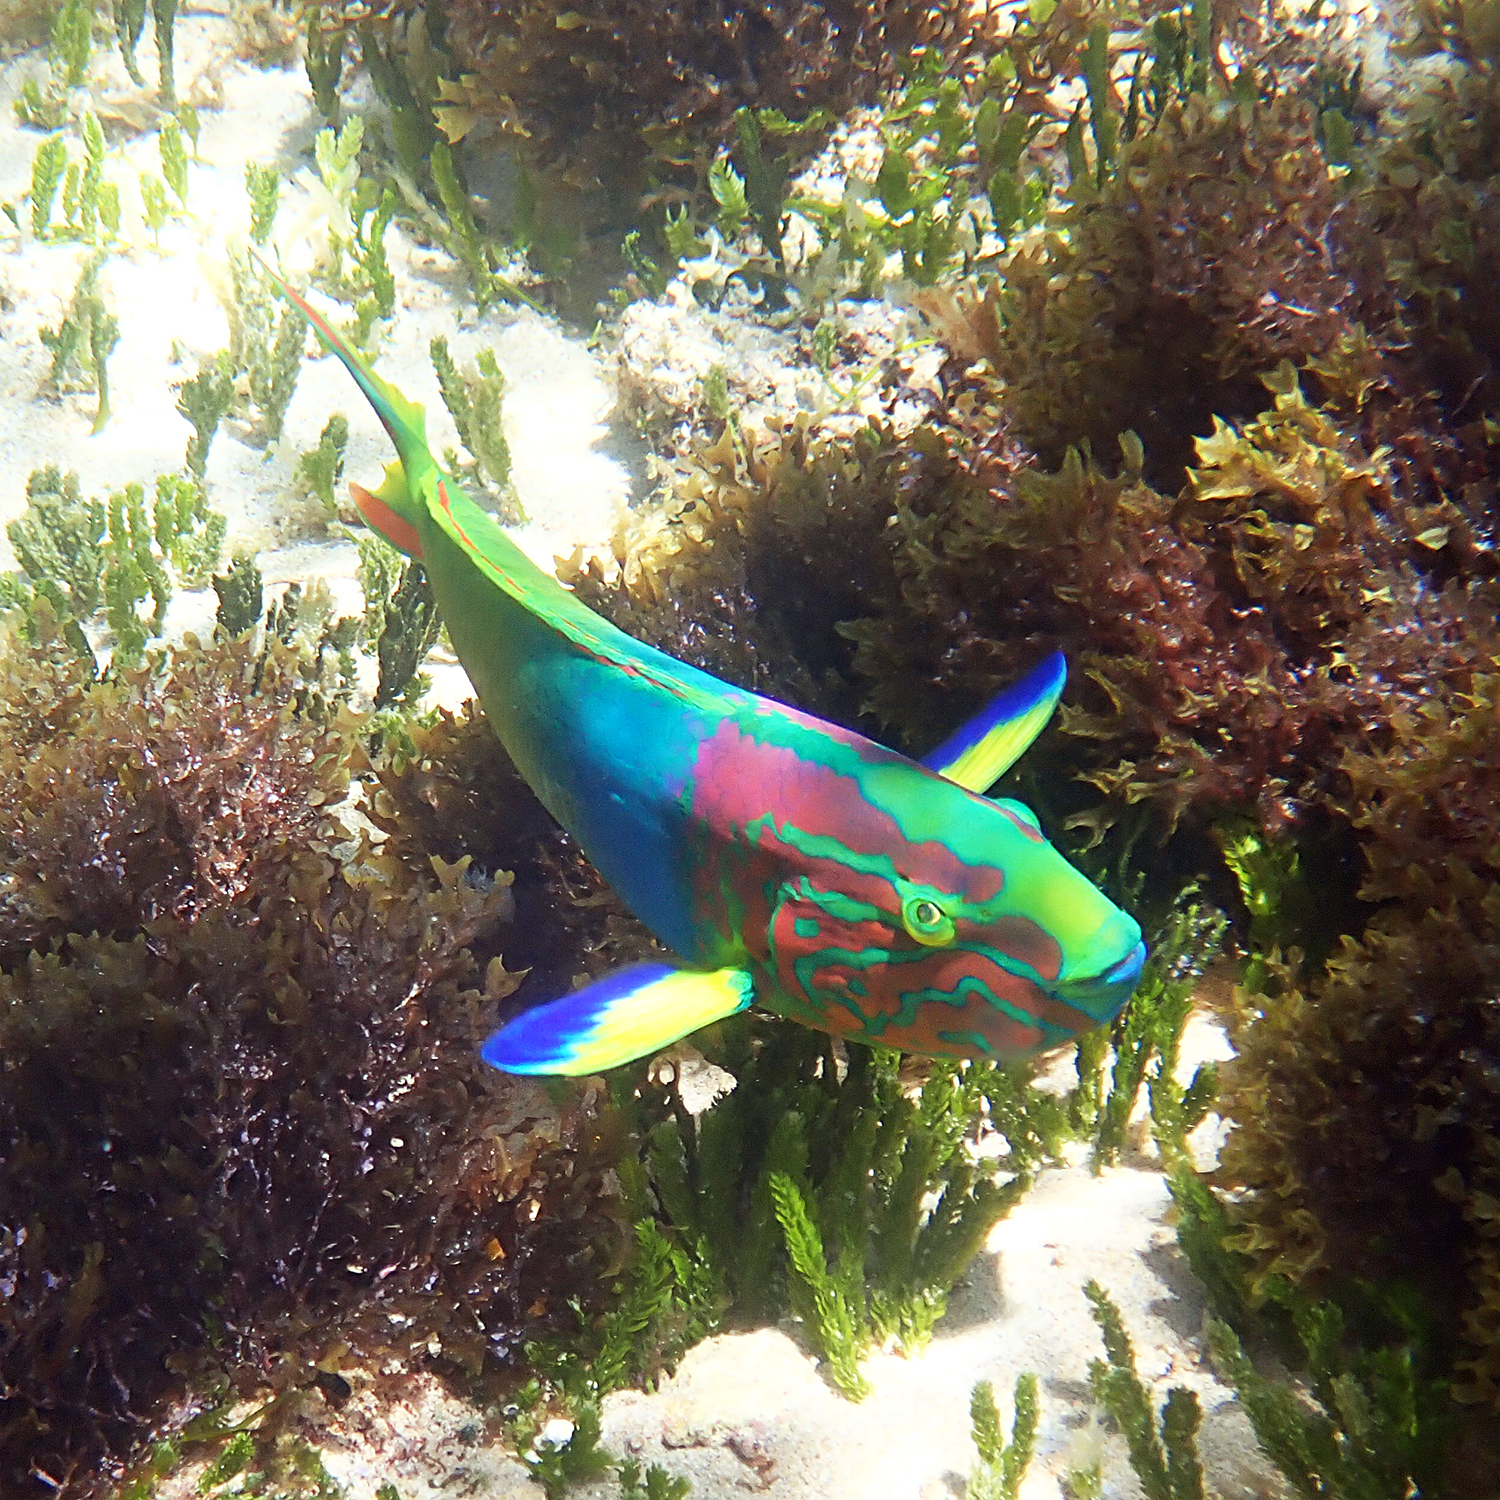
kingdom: Animalia
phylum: Chordata
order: Perciformes
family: Labridae
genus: Thalassoma
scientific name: Thalassoma lutescens
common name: Green moon wrasse
